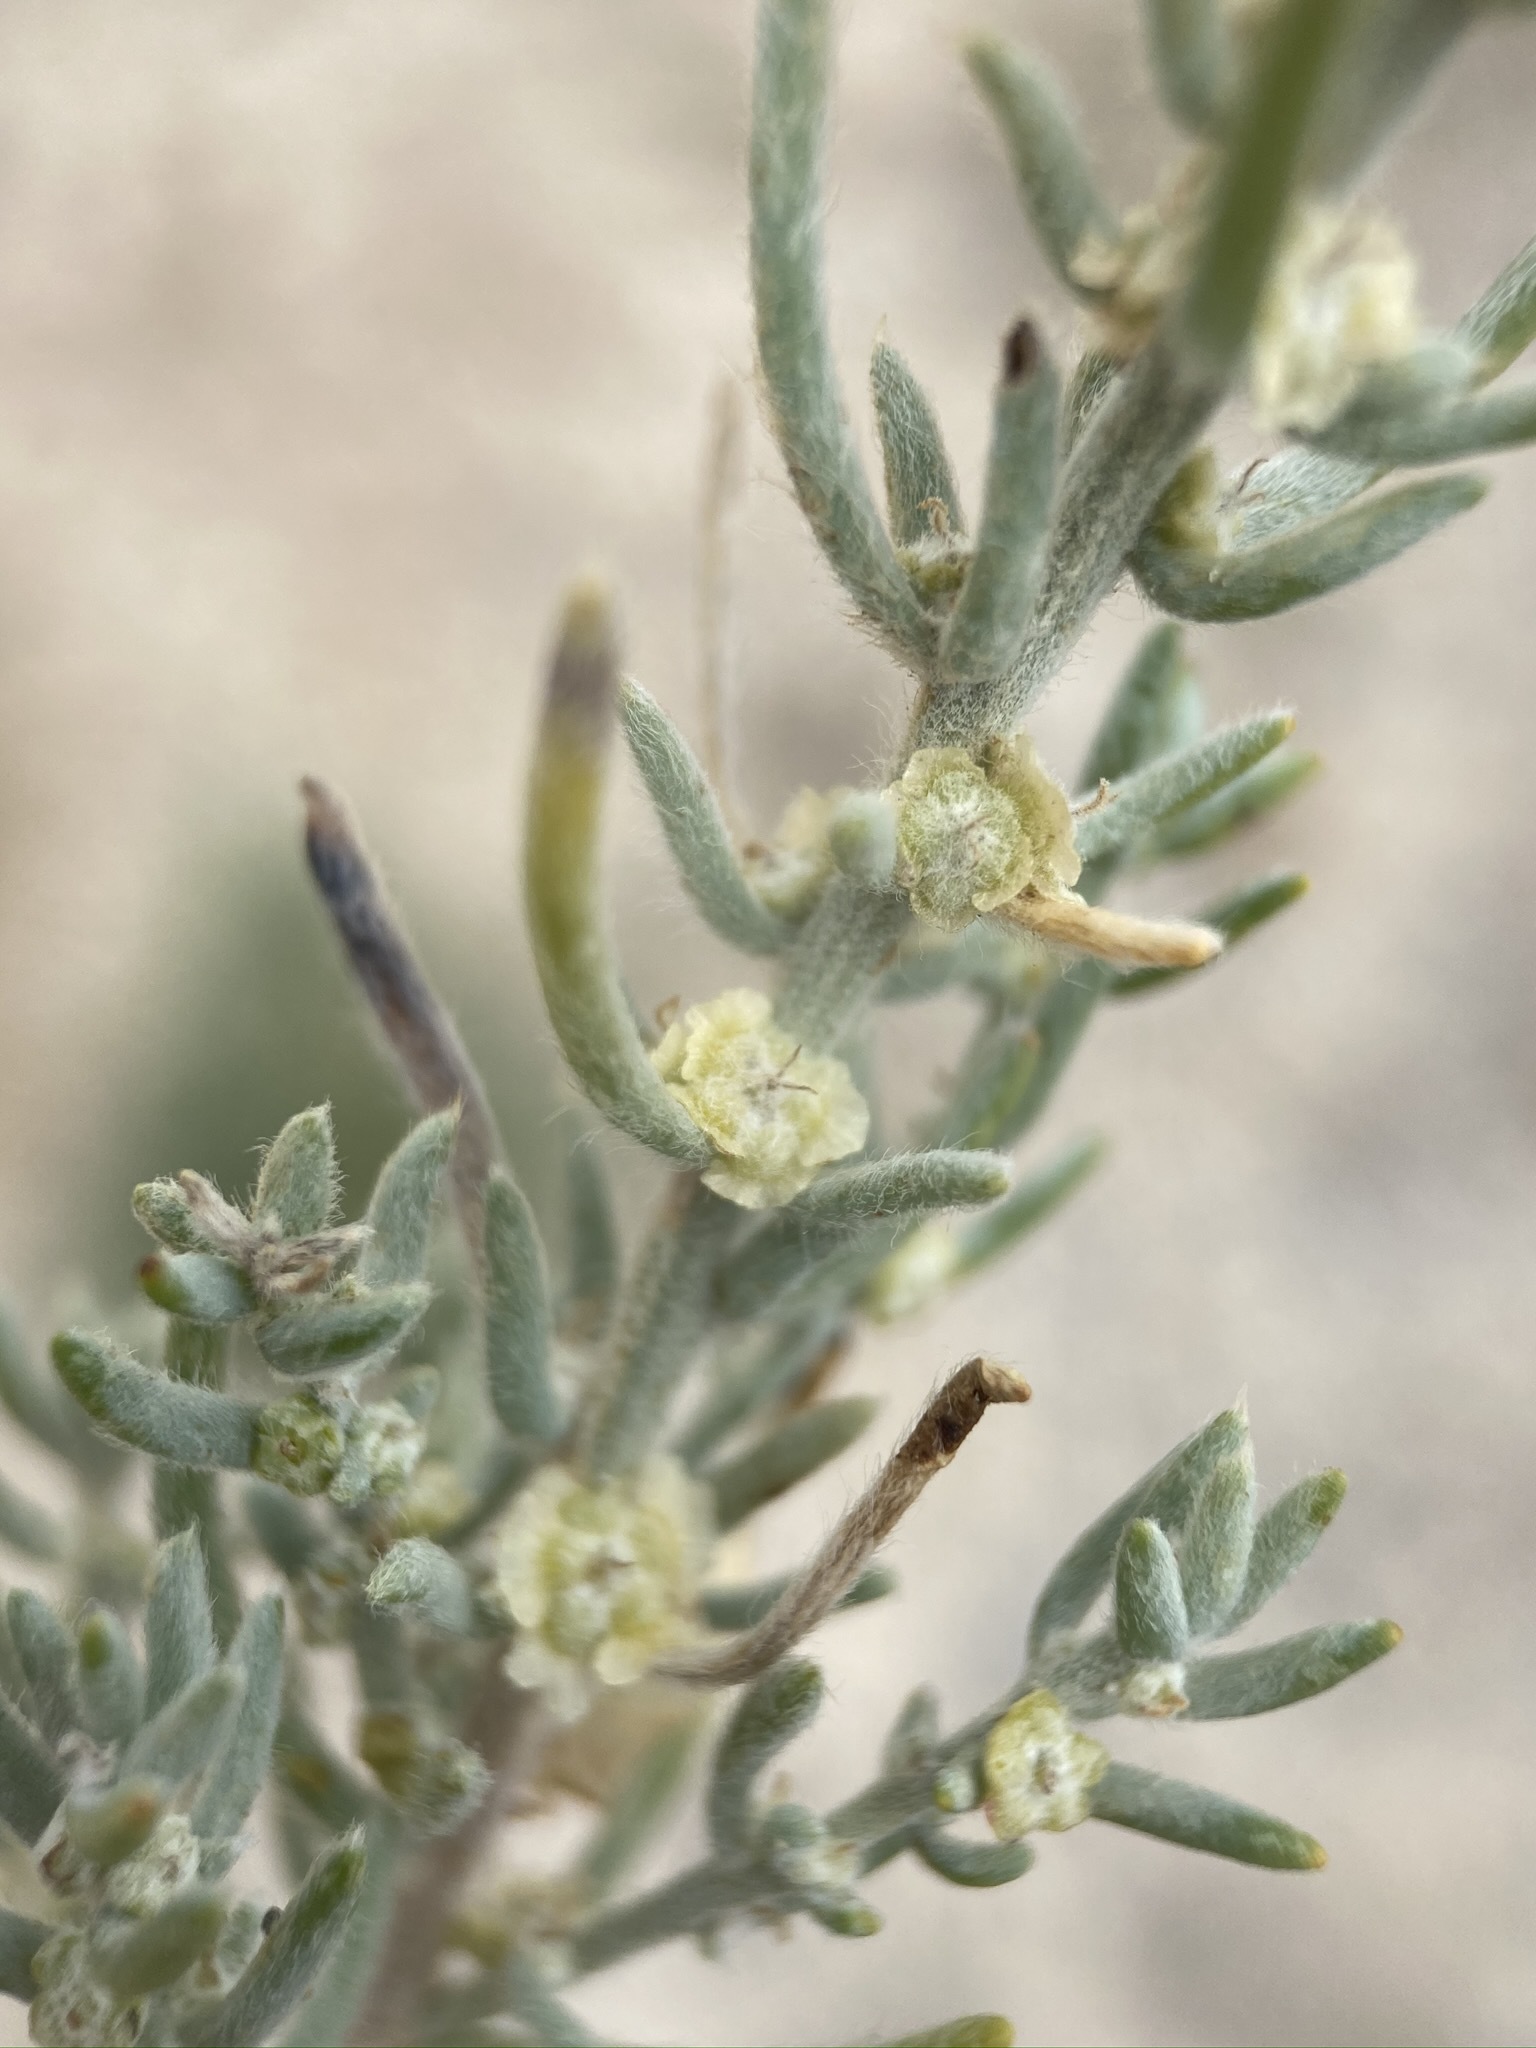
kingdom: Plantae
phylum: Tracheophyta
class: Magnoliopsida
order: Caryophyllales
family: Amaranthaceae
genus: Neokochia
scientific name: Neokochia americana
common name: Perennial summer-cypress
